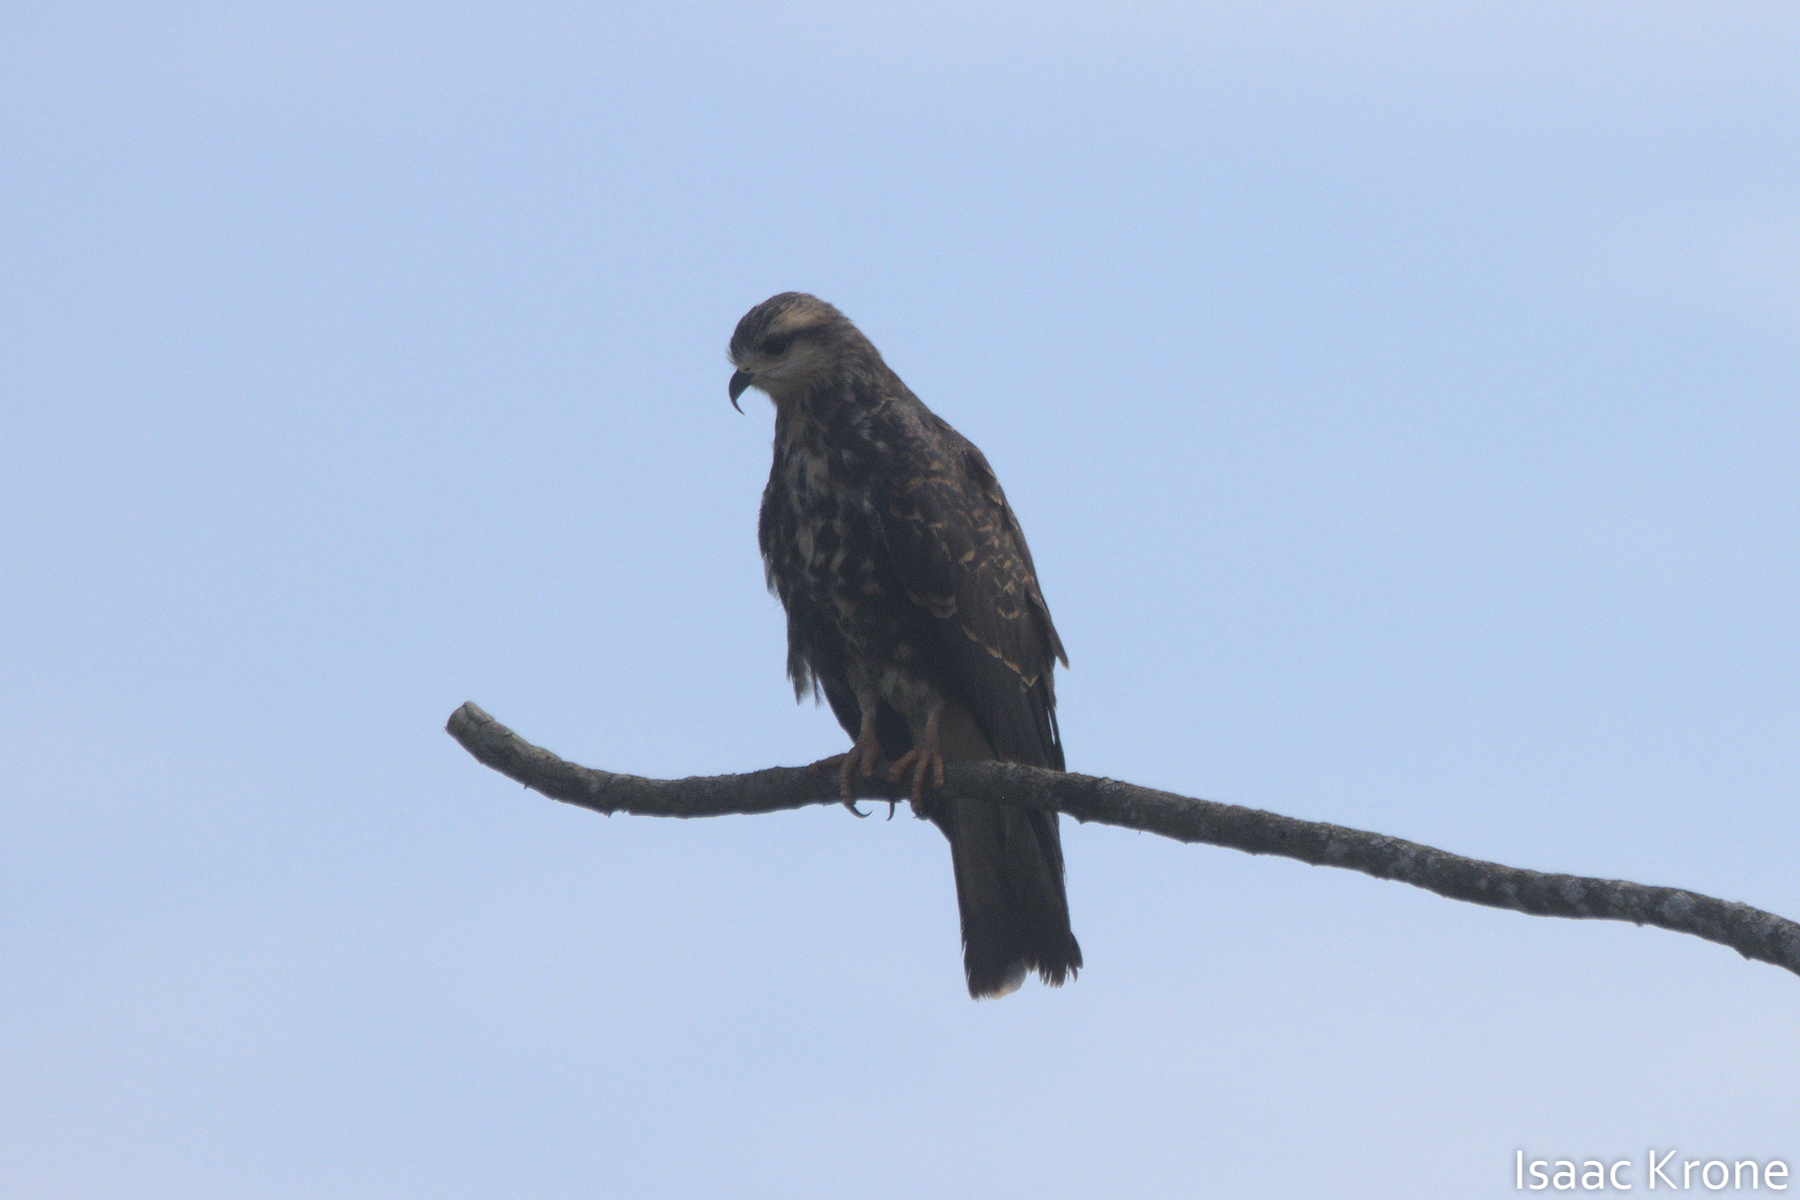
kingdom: Animalia
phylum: Chordata
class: Aves
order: Accipitriformes
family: Accipitridae
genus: Rostrhamus
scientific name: Rostrhamus sociabilis
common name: Snail kite
